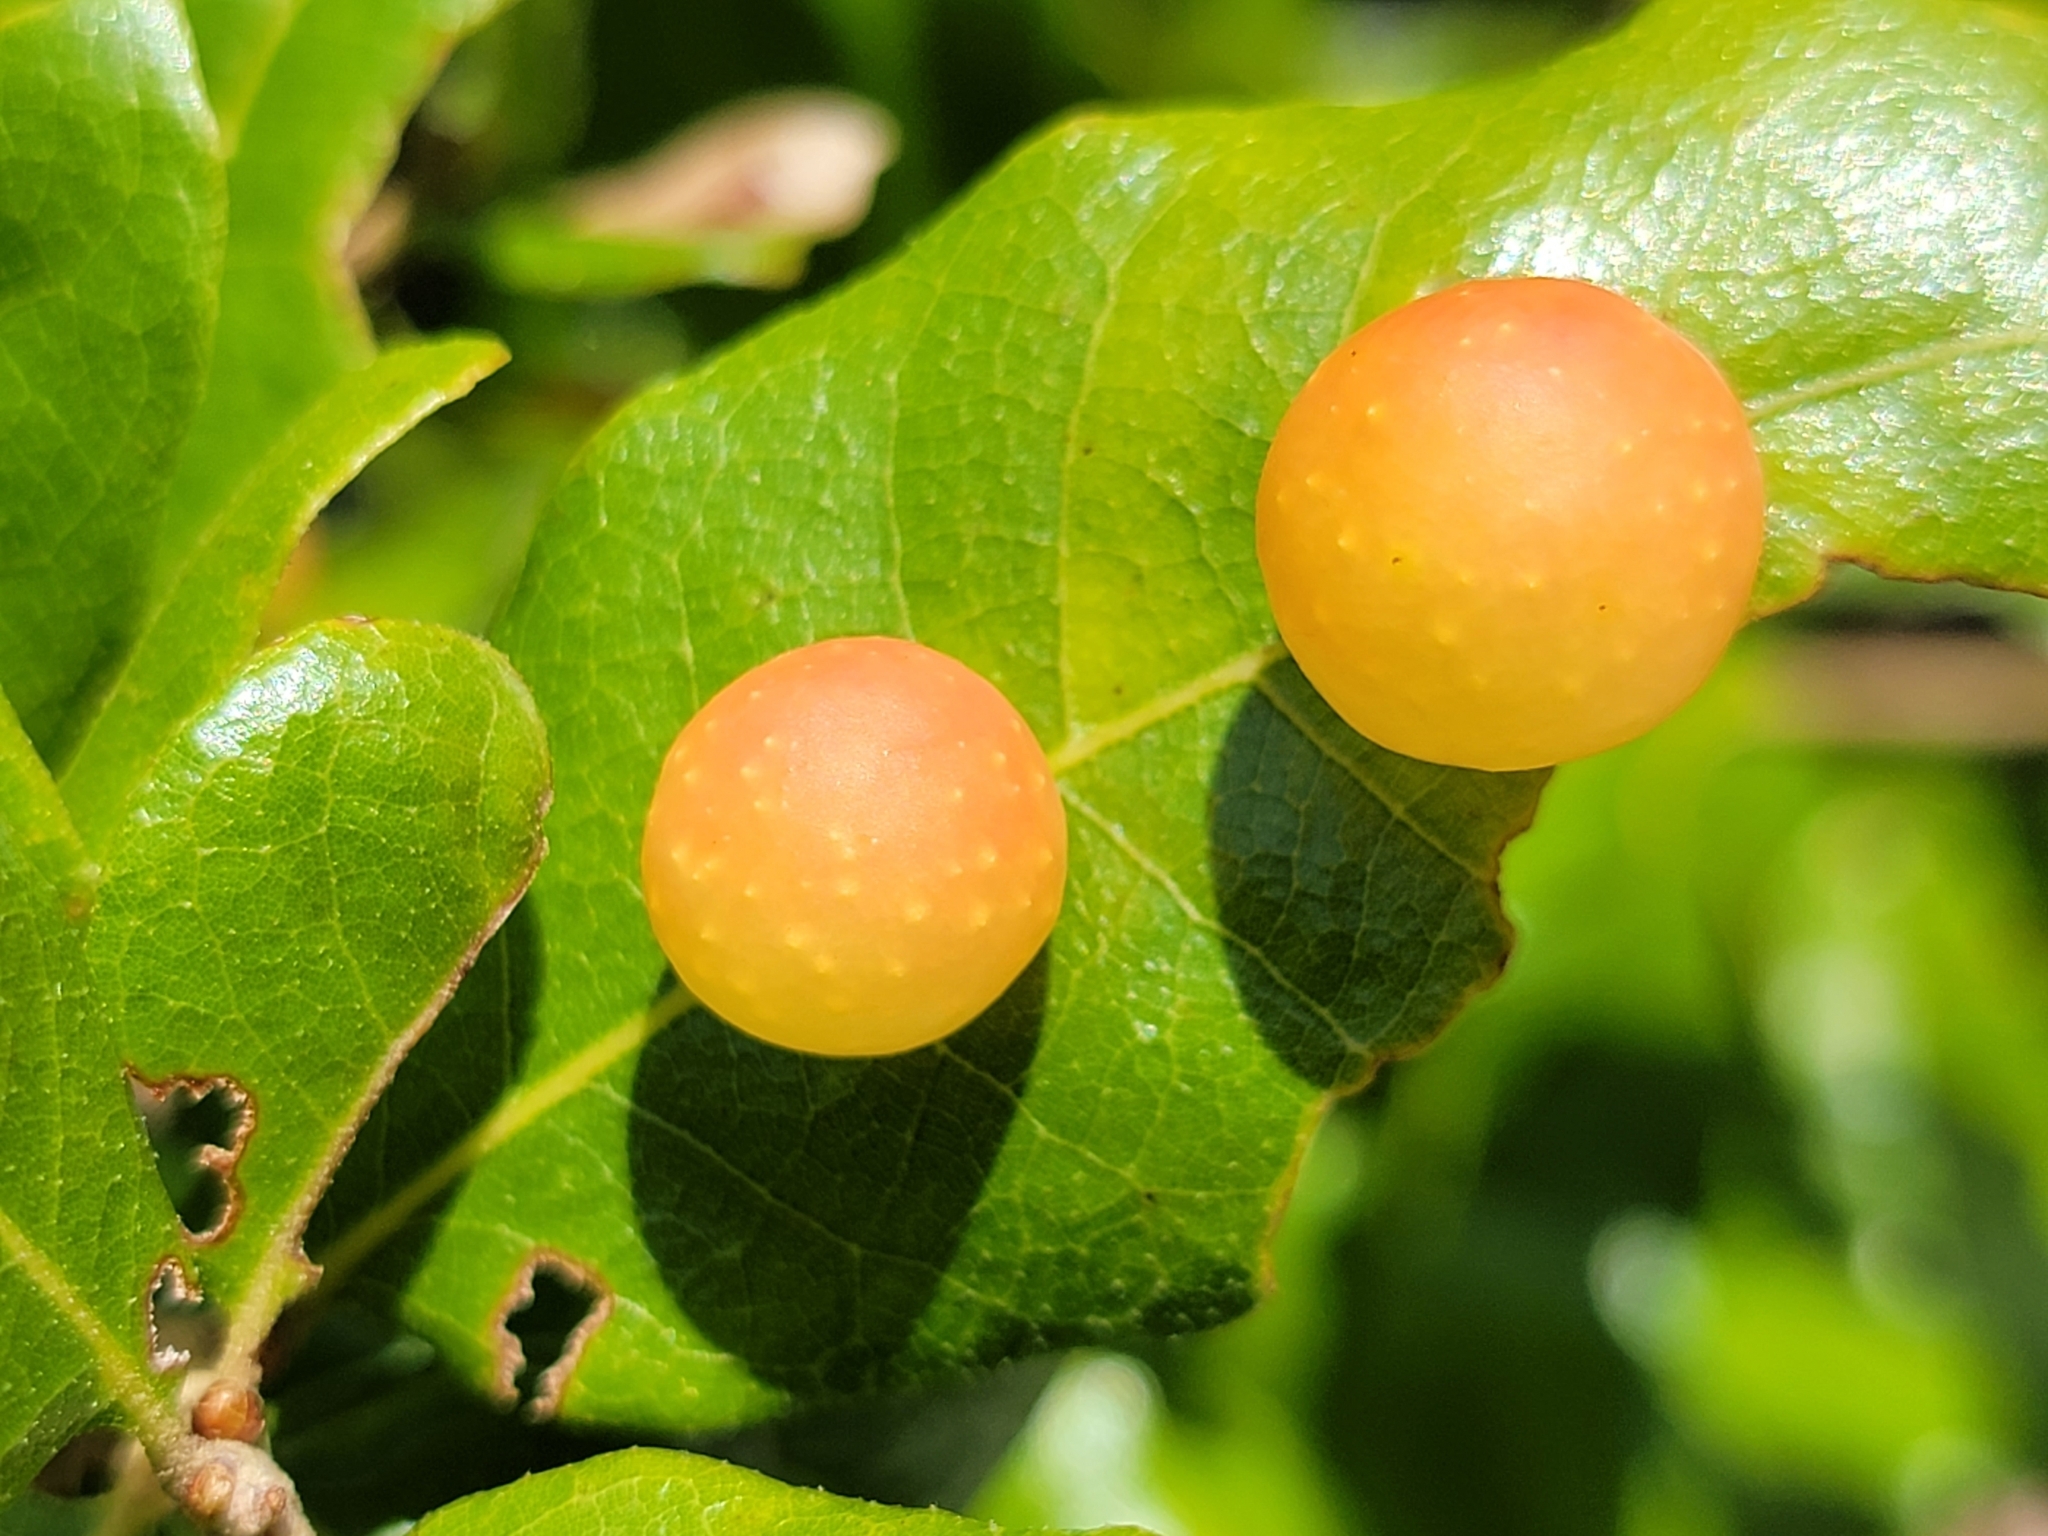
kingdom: Animalia
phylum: Arthropoda
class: Insecta
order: Hymenoptera
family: Cynipidae
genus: Trigonaspis
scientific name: Trigonaspis
